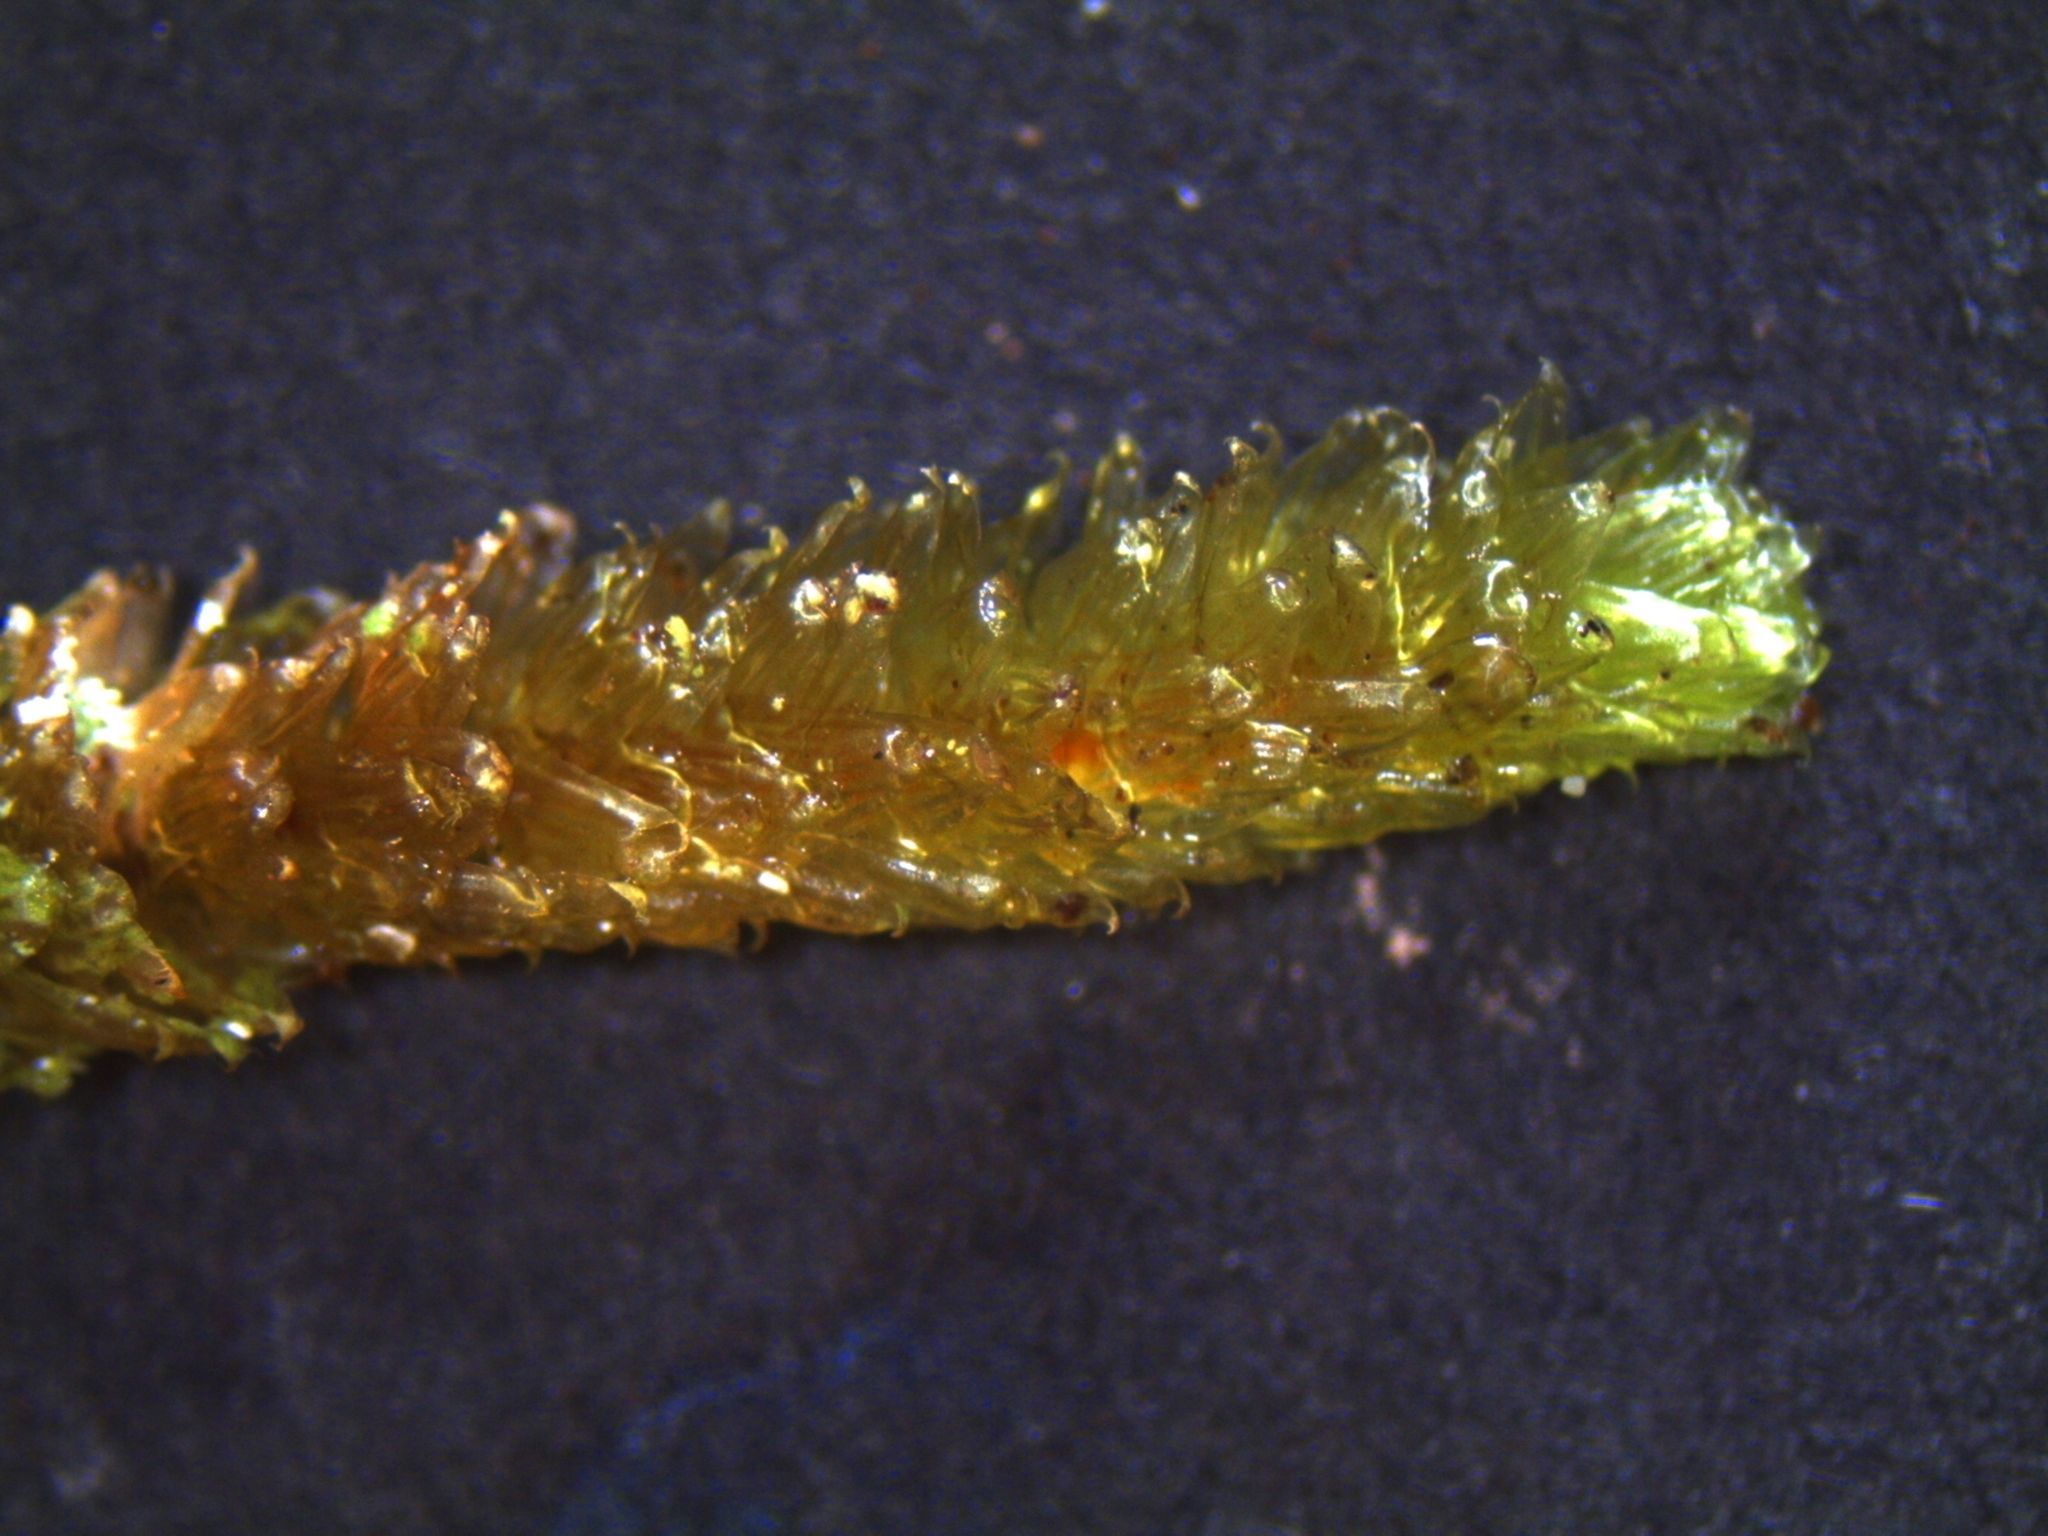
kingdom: Plantae
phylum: Bryophyta
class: Bryopsida
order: Ptychomniales
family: Ptychomniaceae
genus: Cladomnion
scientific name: Cladomnion ericoides
